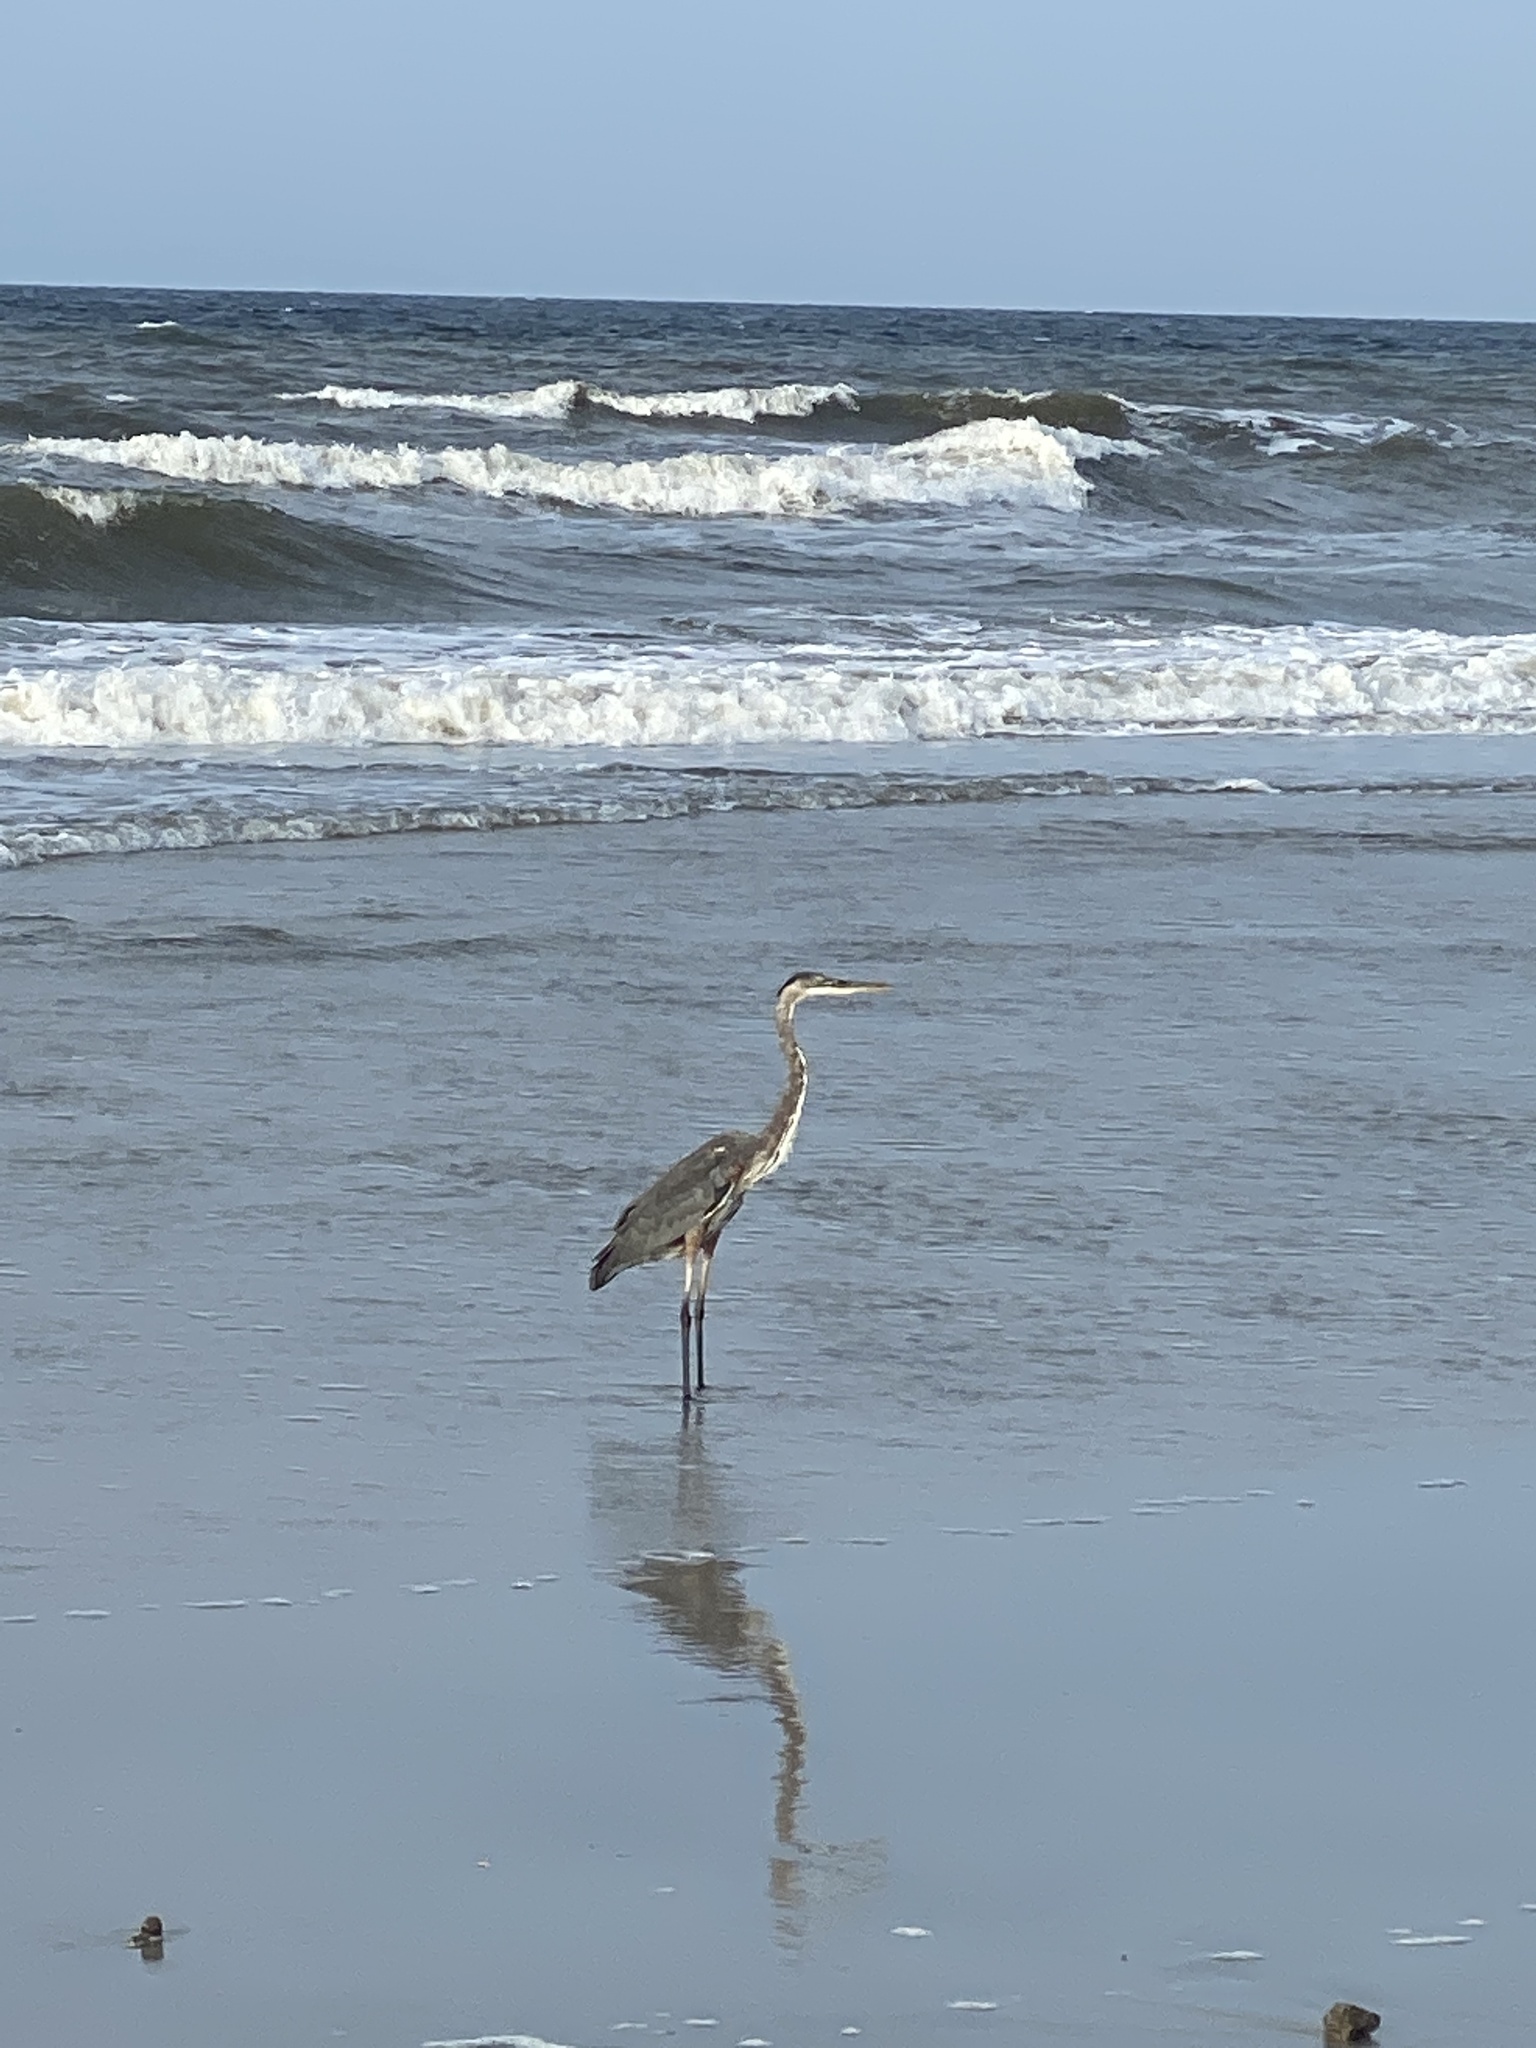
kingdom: Animalia
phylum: Chordata
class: Aves
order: Pelecaniformes
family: Ardeidae
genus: Ardea
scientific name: Ardea herodias
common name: Great blue heron
